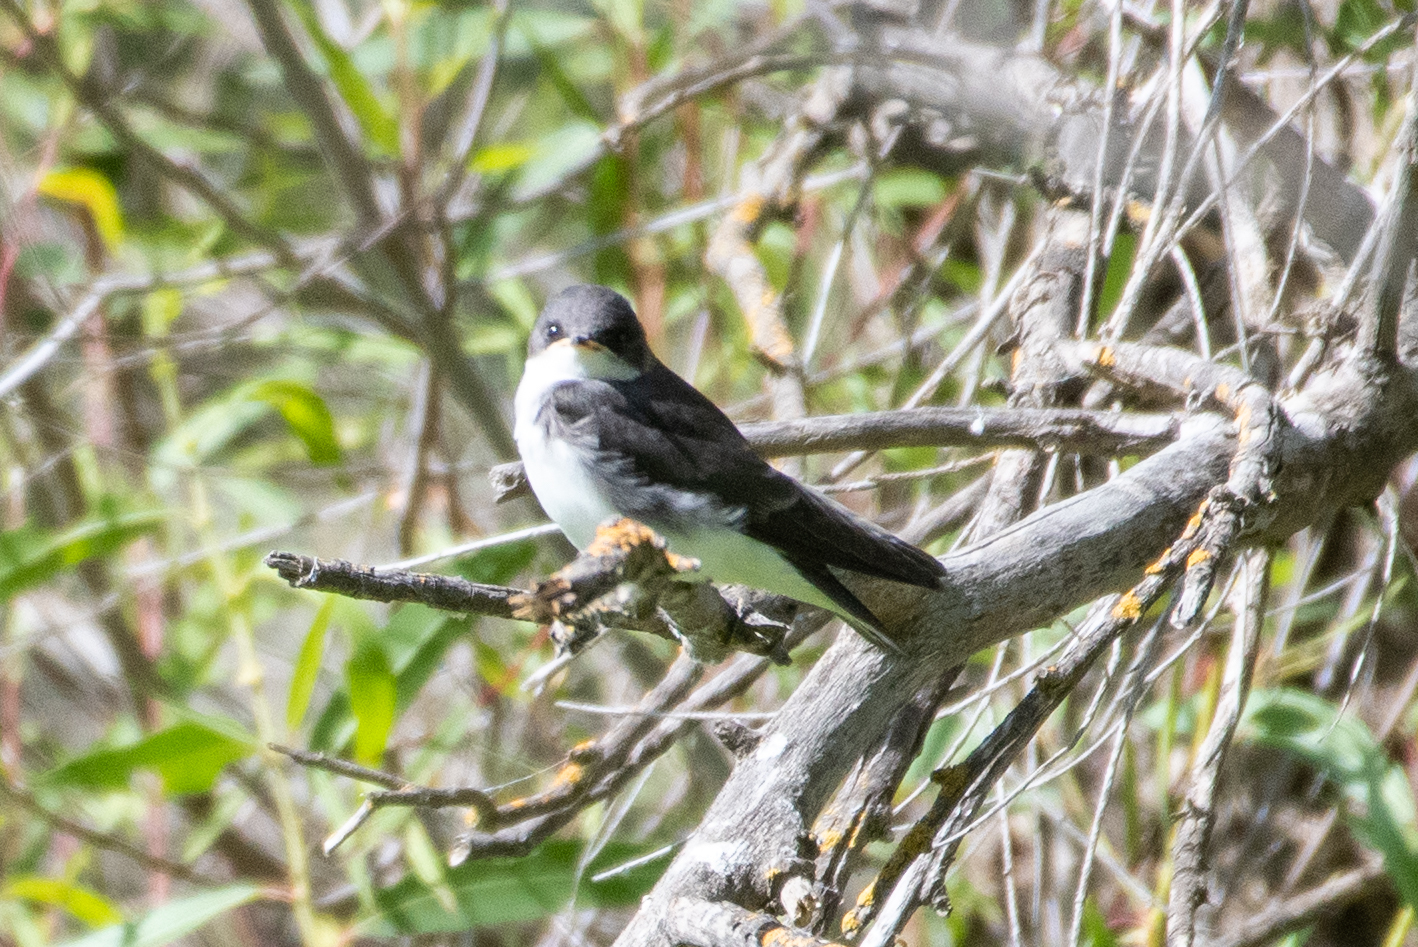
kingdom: Animalia
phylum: Chordata
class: Aves
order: Passeriformes
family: Hirundinidae
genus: Tachycineta
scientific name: Tachycineta bicolor
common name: Tree swallow
